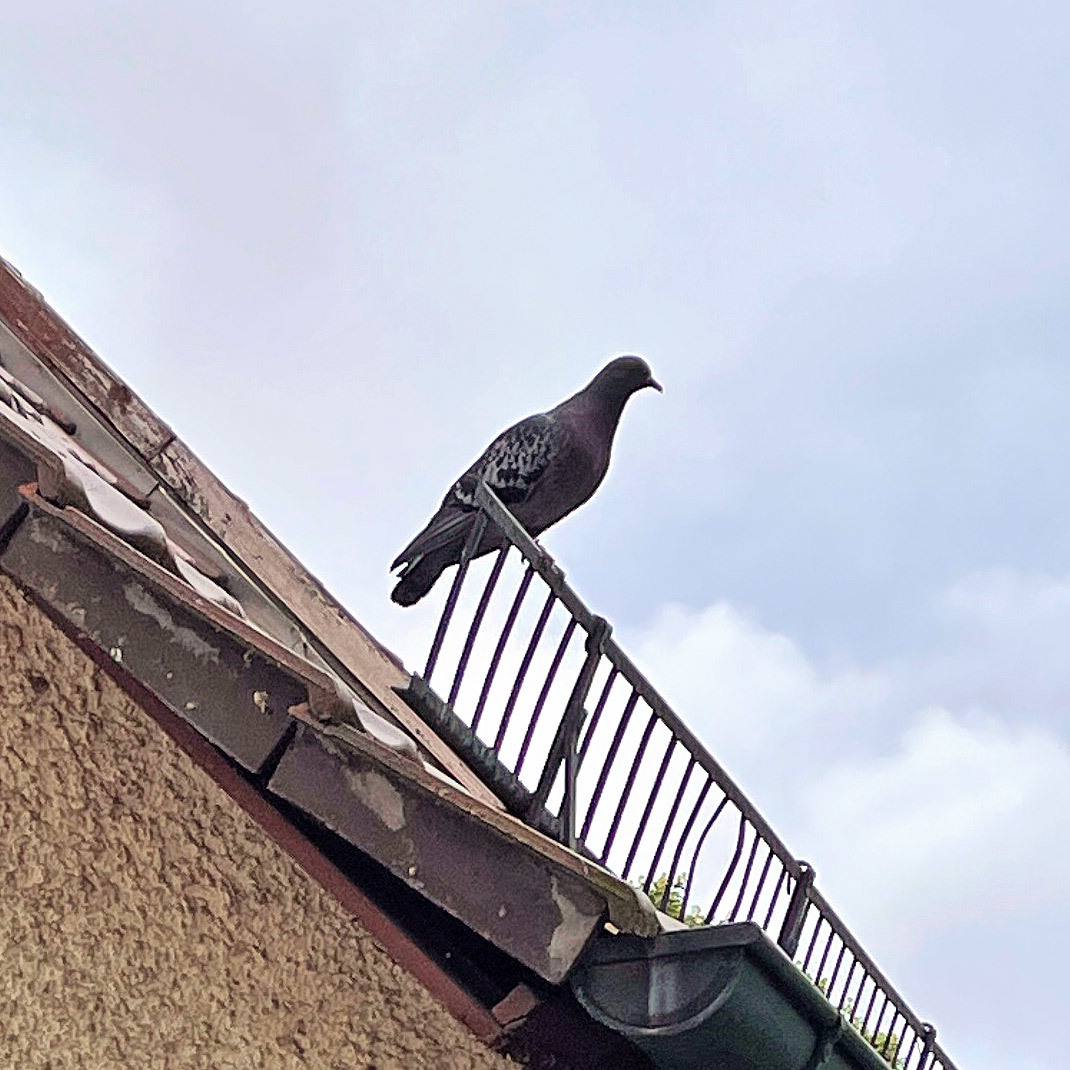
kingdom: Animalia
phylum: Chordata
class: Aves
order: Columbiformes
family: Columbidae
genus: Columba
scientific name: Columba livia
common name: Rock pigeon
